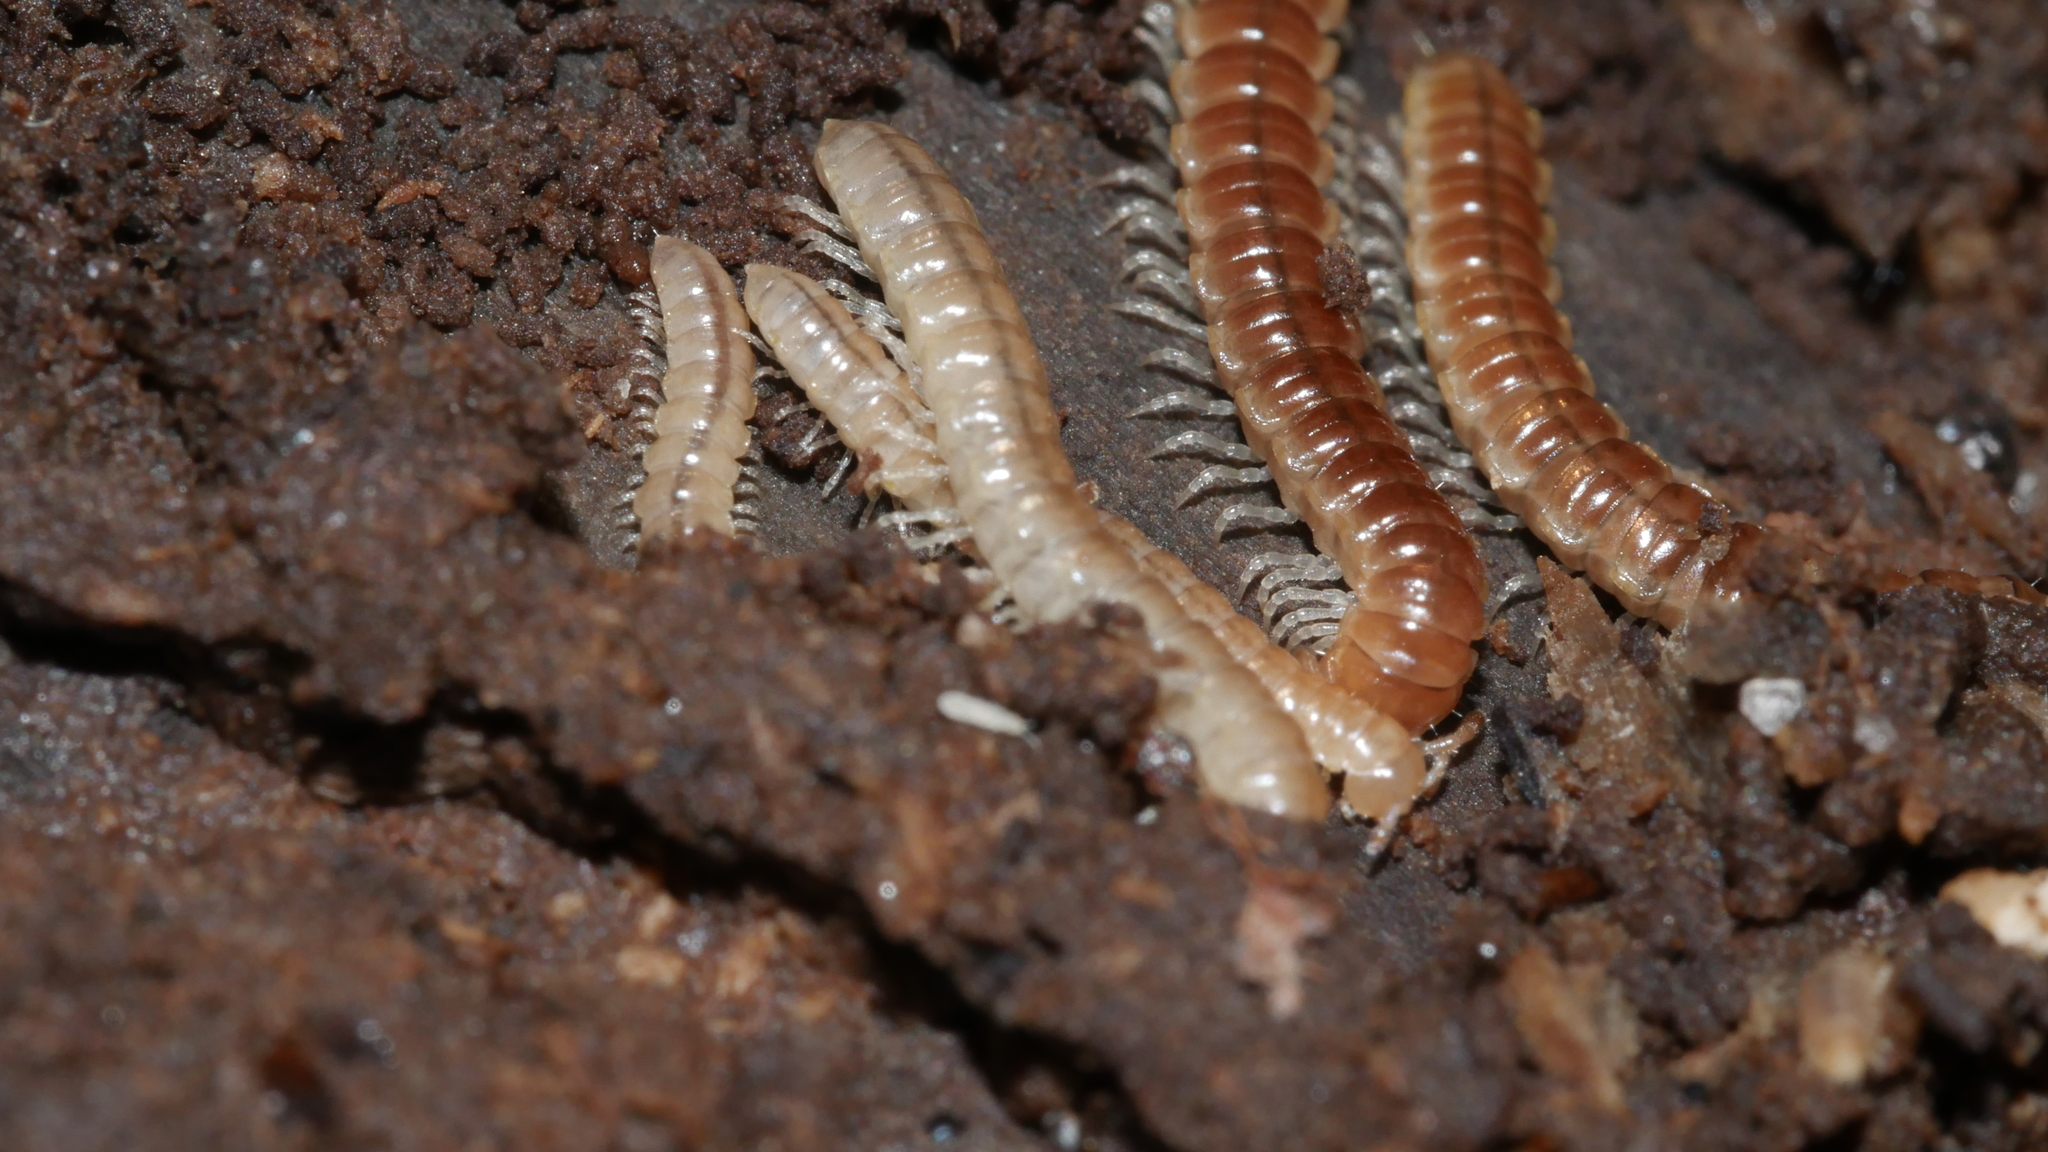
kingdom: Animalia
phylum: Arthropoda
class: Diplopoda
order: Polydesmida
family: Paradoxosomatidae
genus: Oxidus
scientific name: Oxidus gracilis
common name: Greenhouse millipede
